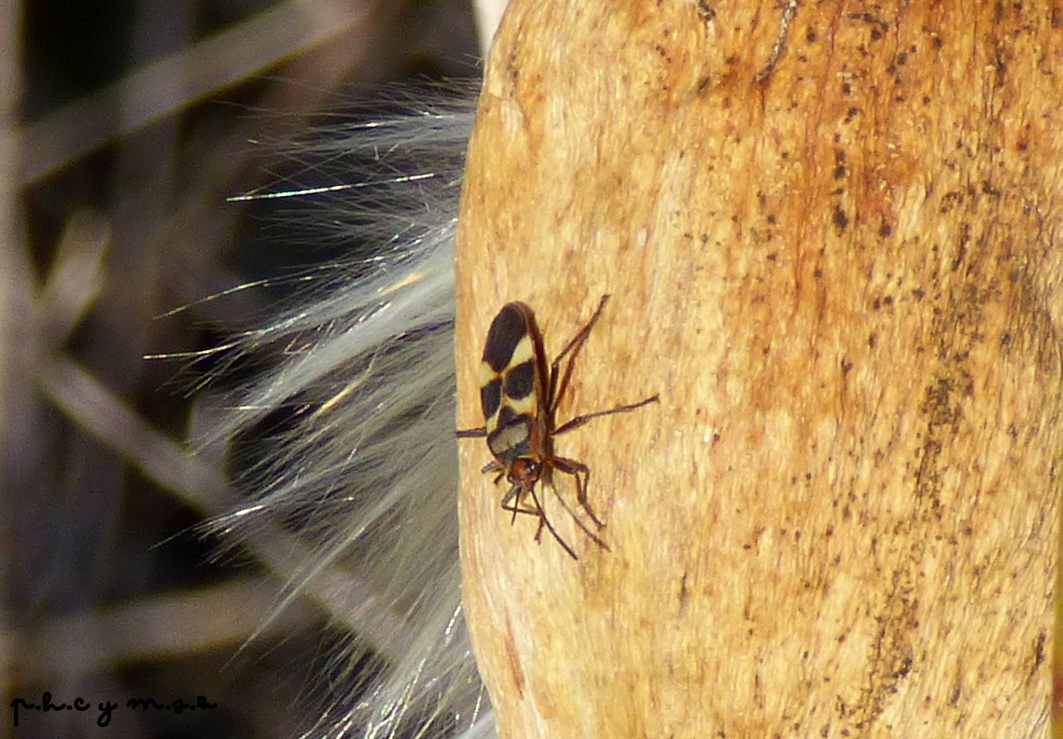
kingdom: Animalia
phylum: Arthropoda
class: Insecta
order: Hemiptera
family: Lygaeidae
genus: Oncopeltus
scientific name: Oncopeltus unifasciatellus
